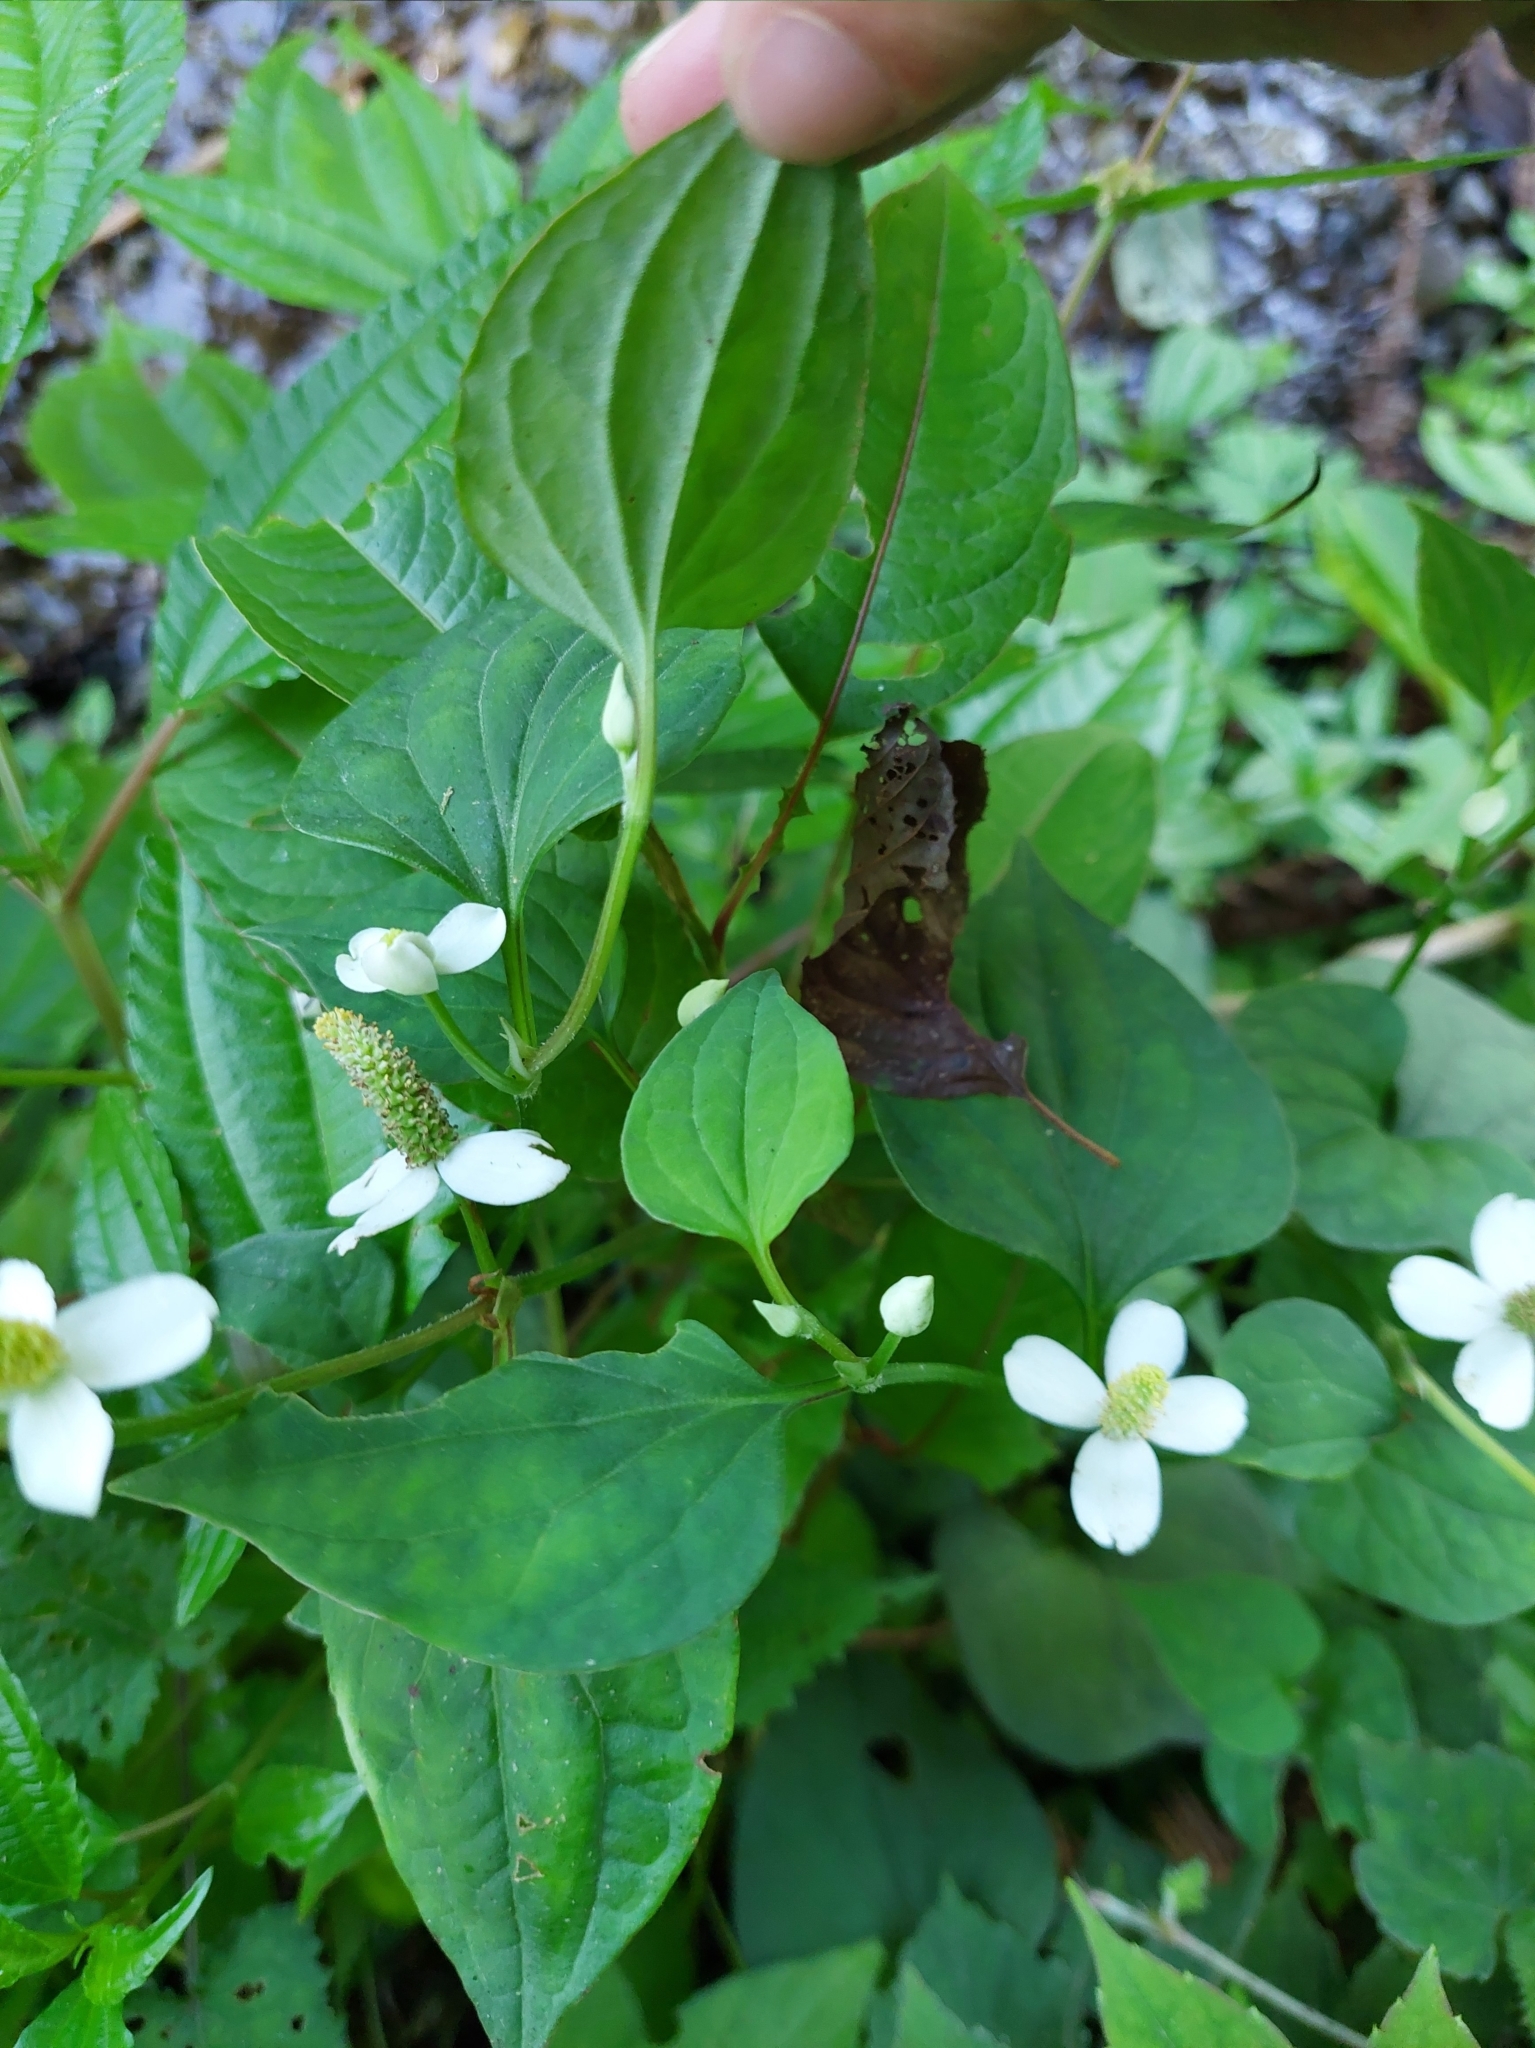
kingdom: Plantae
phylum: Tracheophyta
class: Magnoliopsida
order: Piperales
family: Saururaceae
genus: Houttuynia
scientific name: Houttuynia cordata
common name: Chameleon
